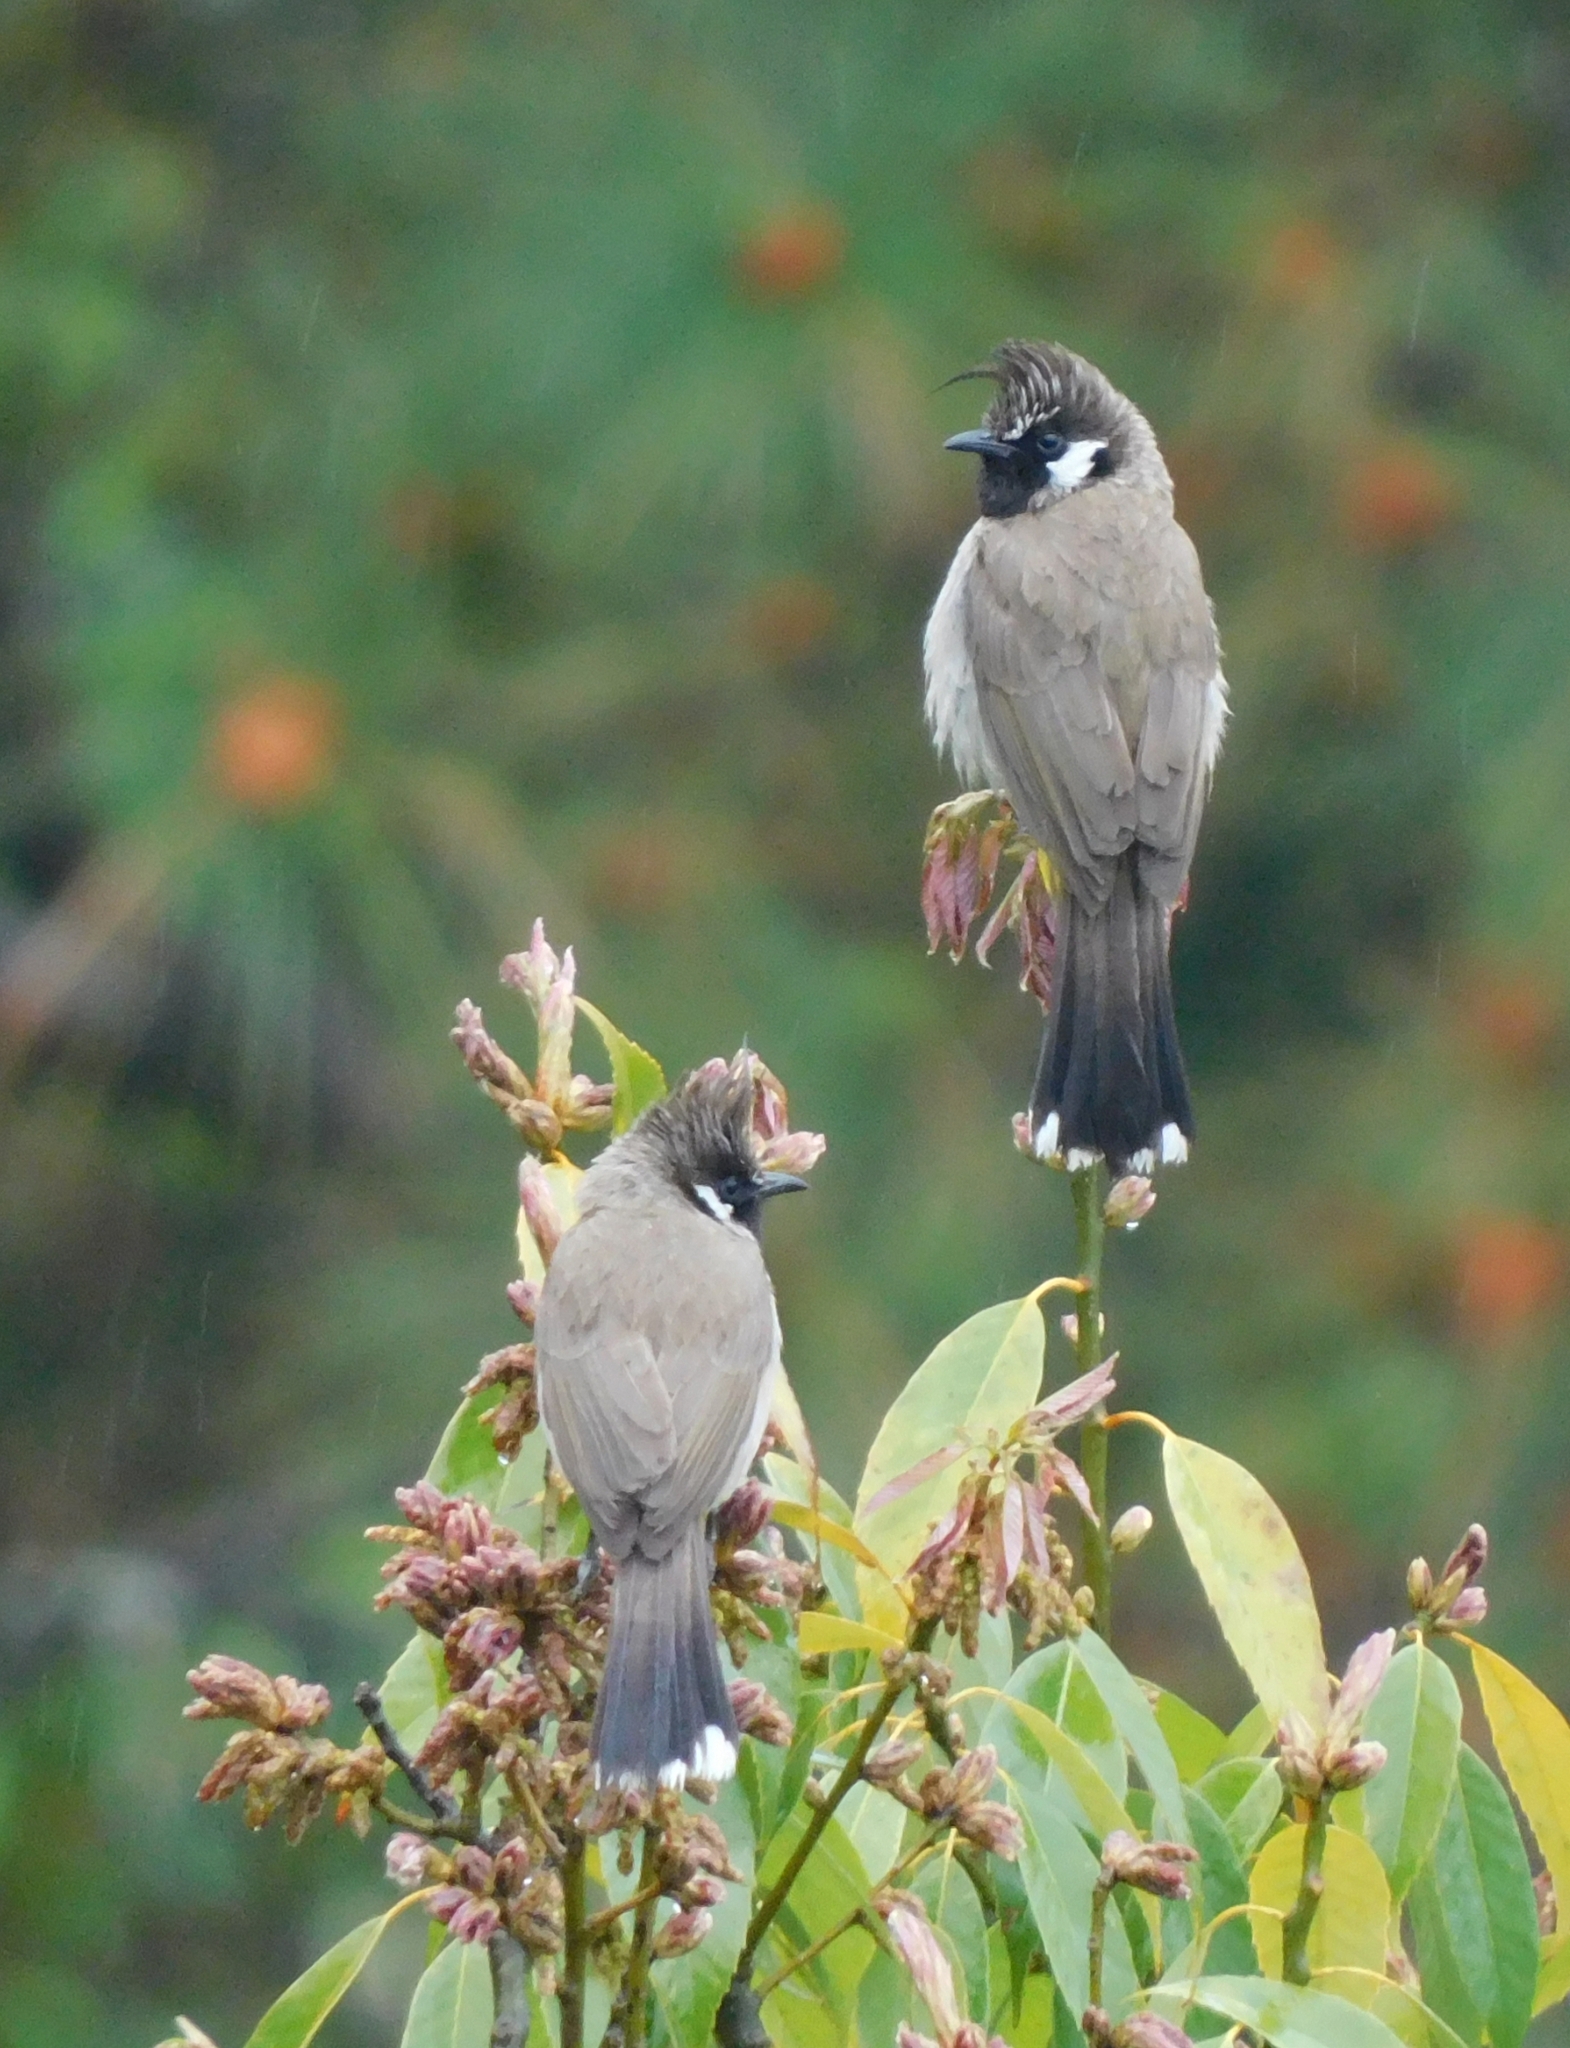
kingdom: Animalia
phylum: Chordata
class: Aves
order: Passeriformes
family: Pycnonotidae
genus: Pycnonotus
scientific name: Pycnonotus leucogenys
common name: Himalayan bulbul
